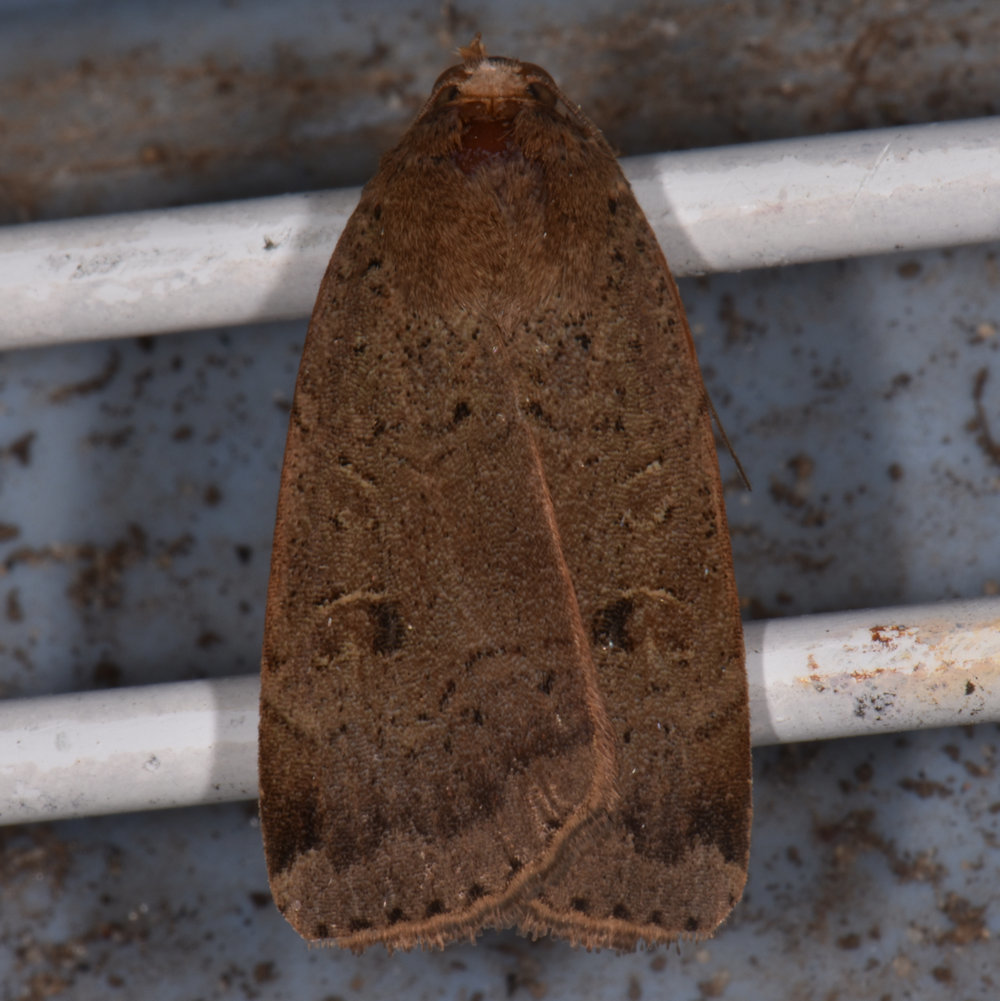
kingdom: Animalia
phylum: Arthropoda
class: Insecta
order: Lepidoptera
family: Noctuidae
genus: Noctua
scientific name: Noctua comes
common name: Lesser yellow underwing
